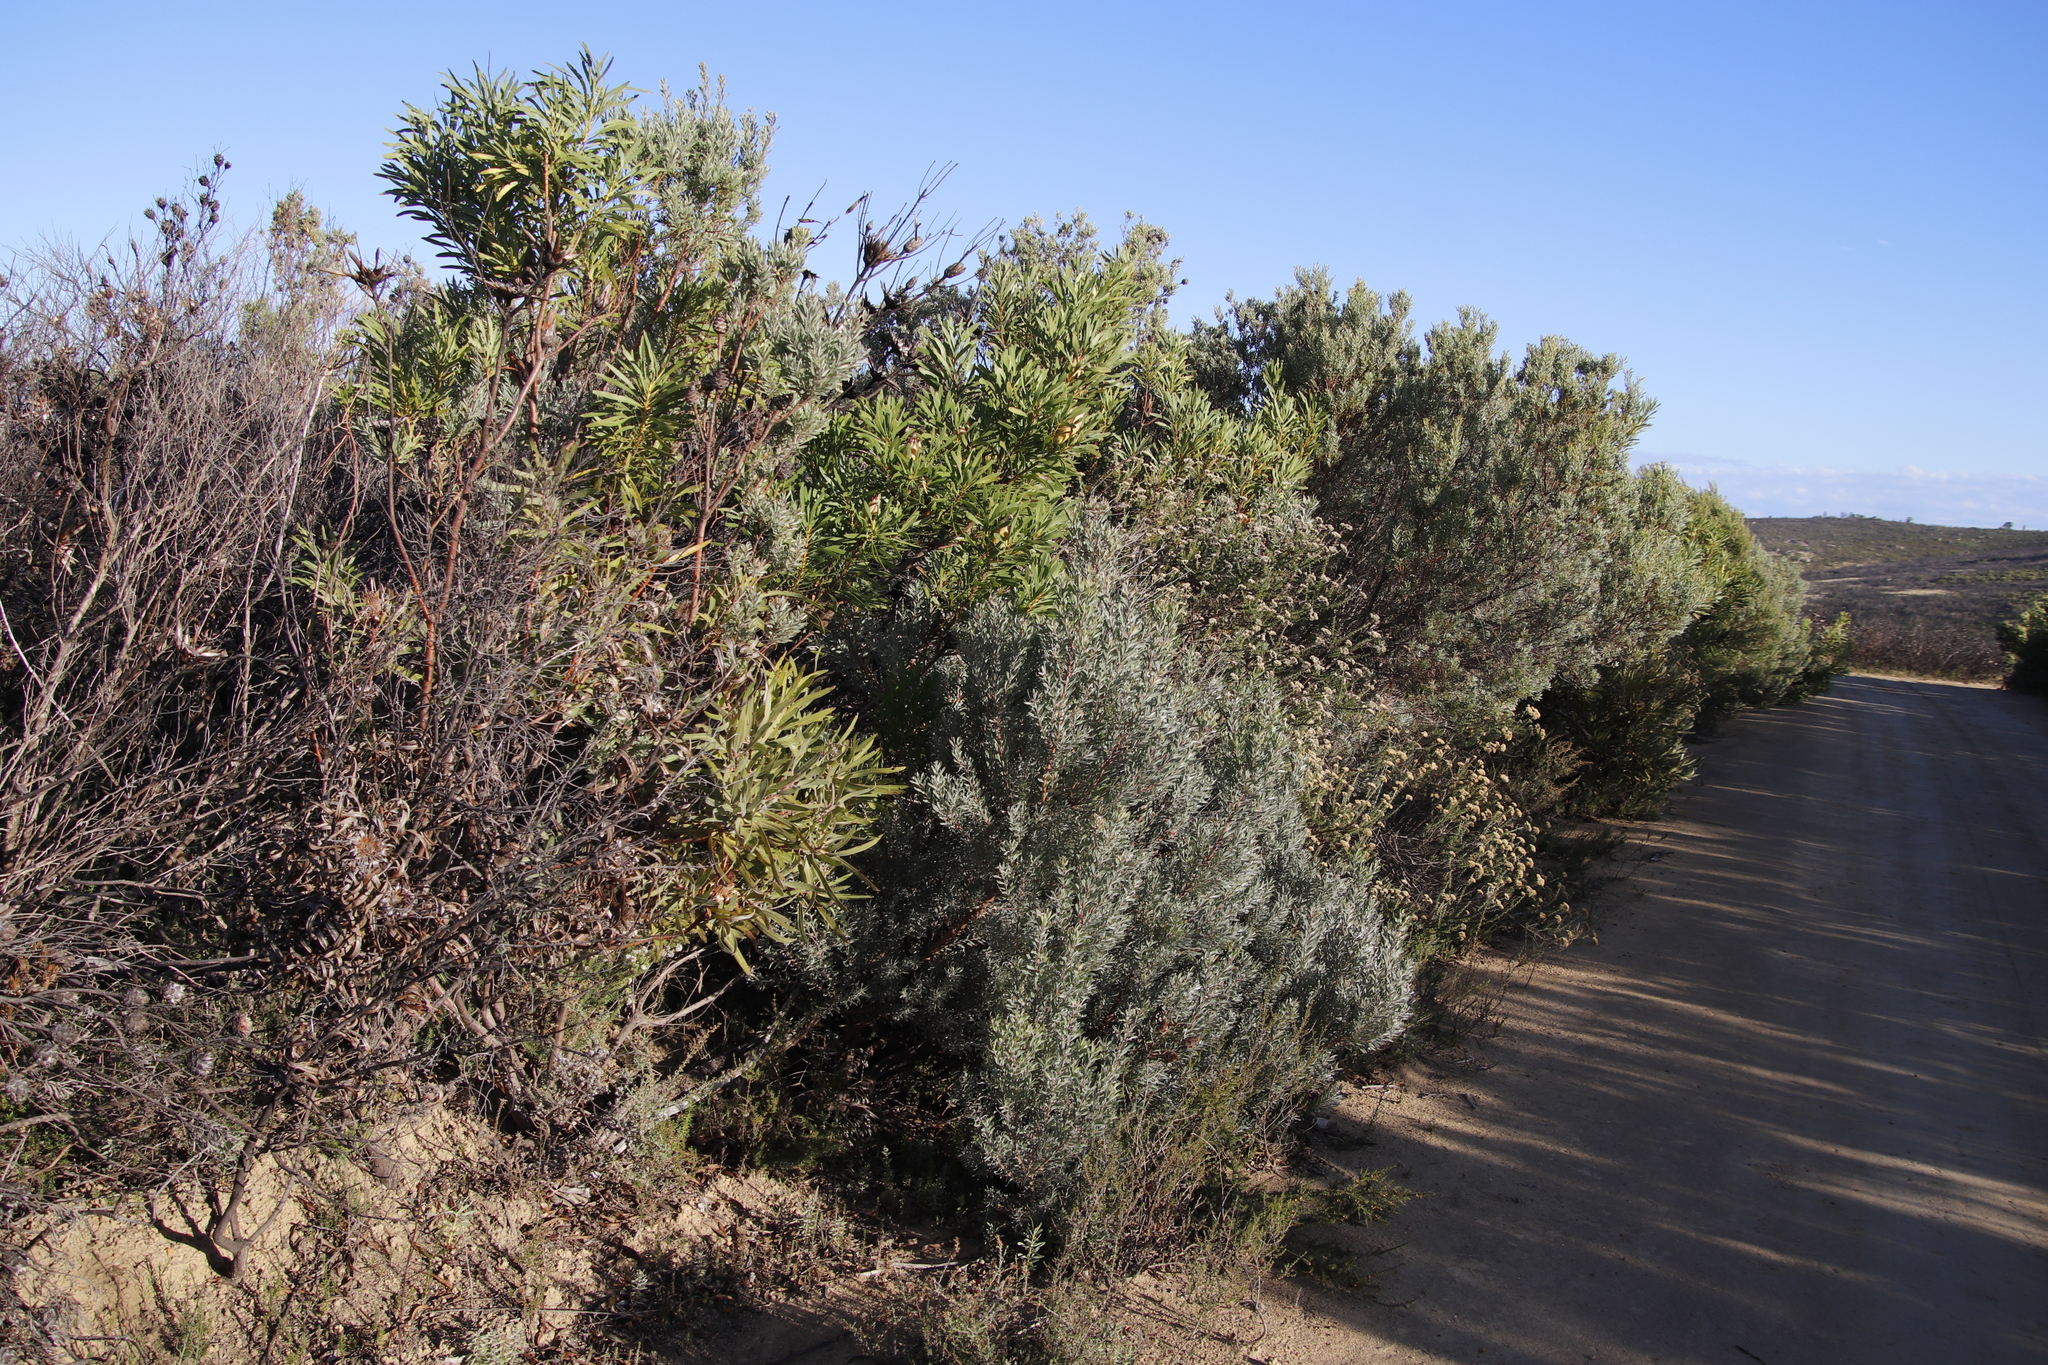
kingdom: Plantae
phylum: Tracheophyta
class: Magnoliopsida
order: Proteales
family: Proteaceae
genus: Leucadendron
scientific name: Leucadendron rubrum
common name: Spinning top
